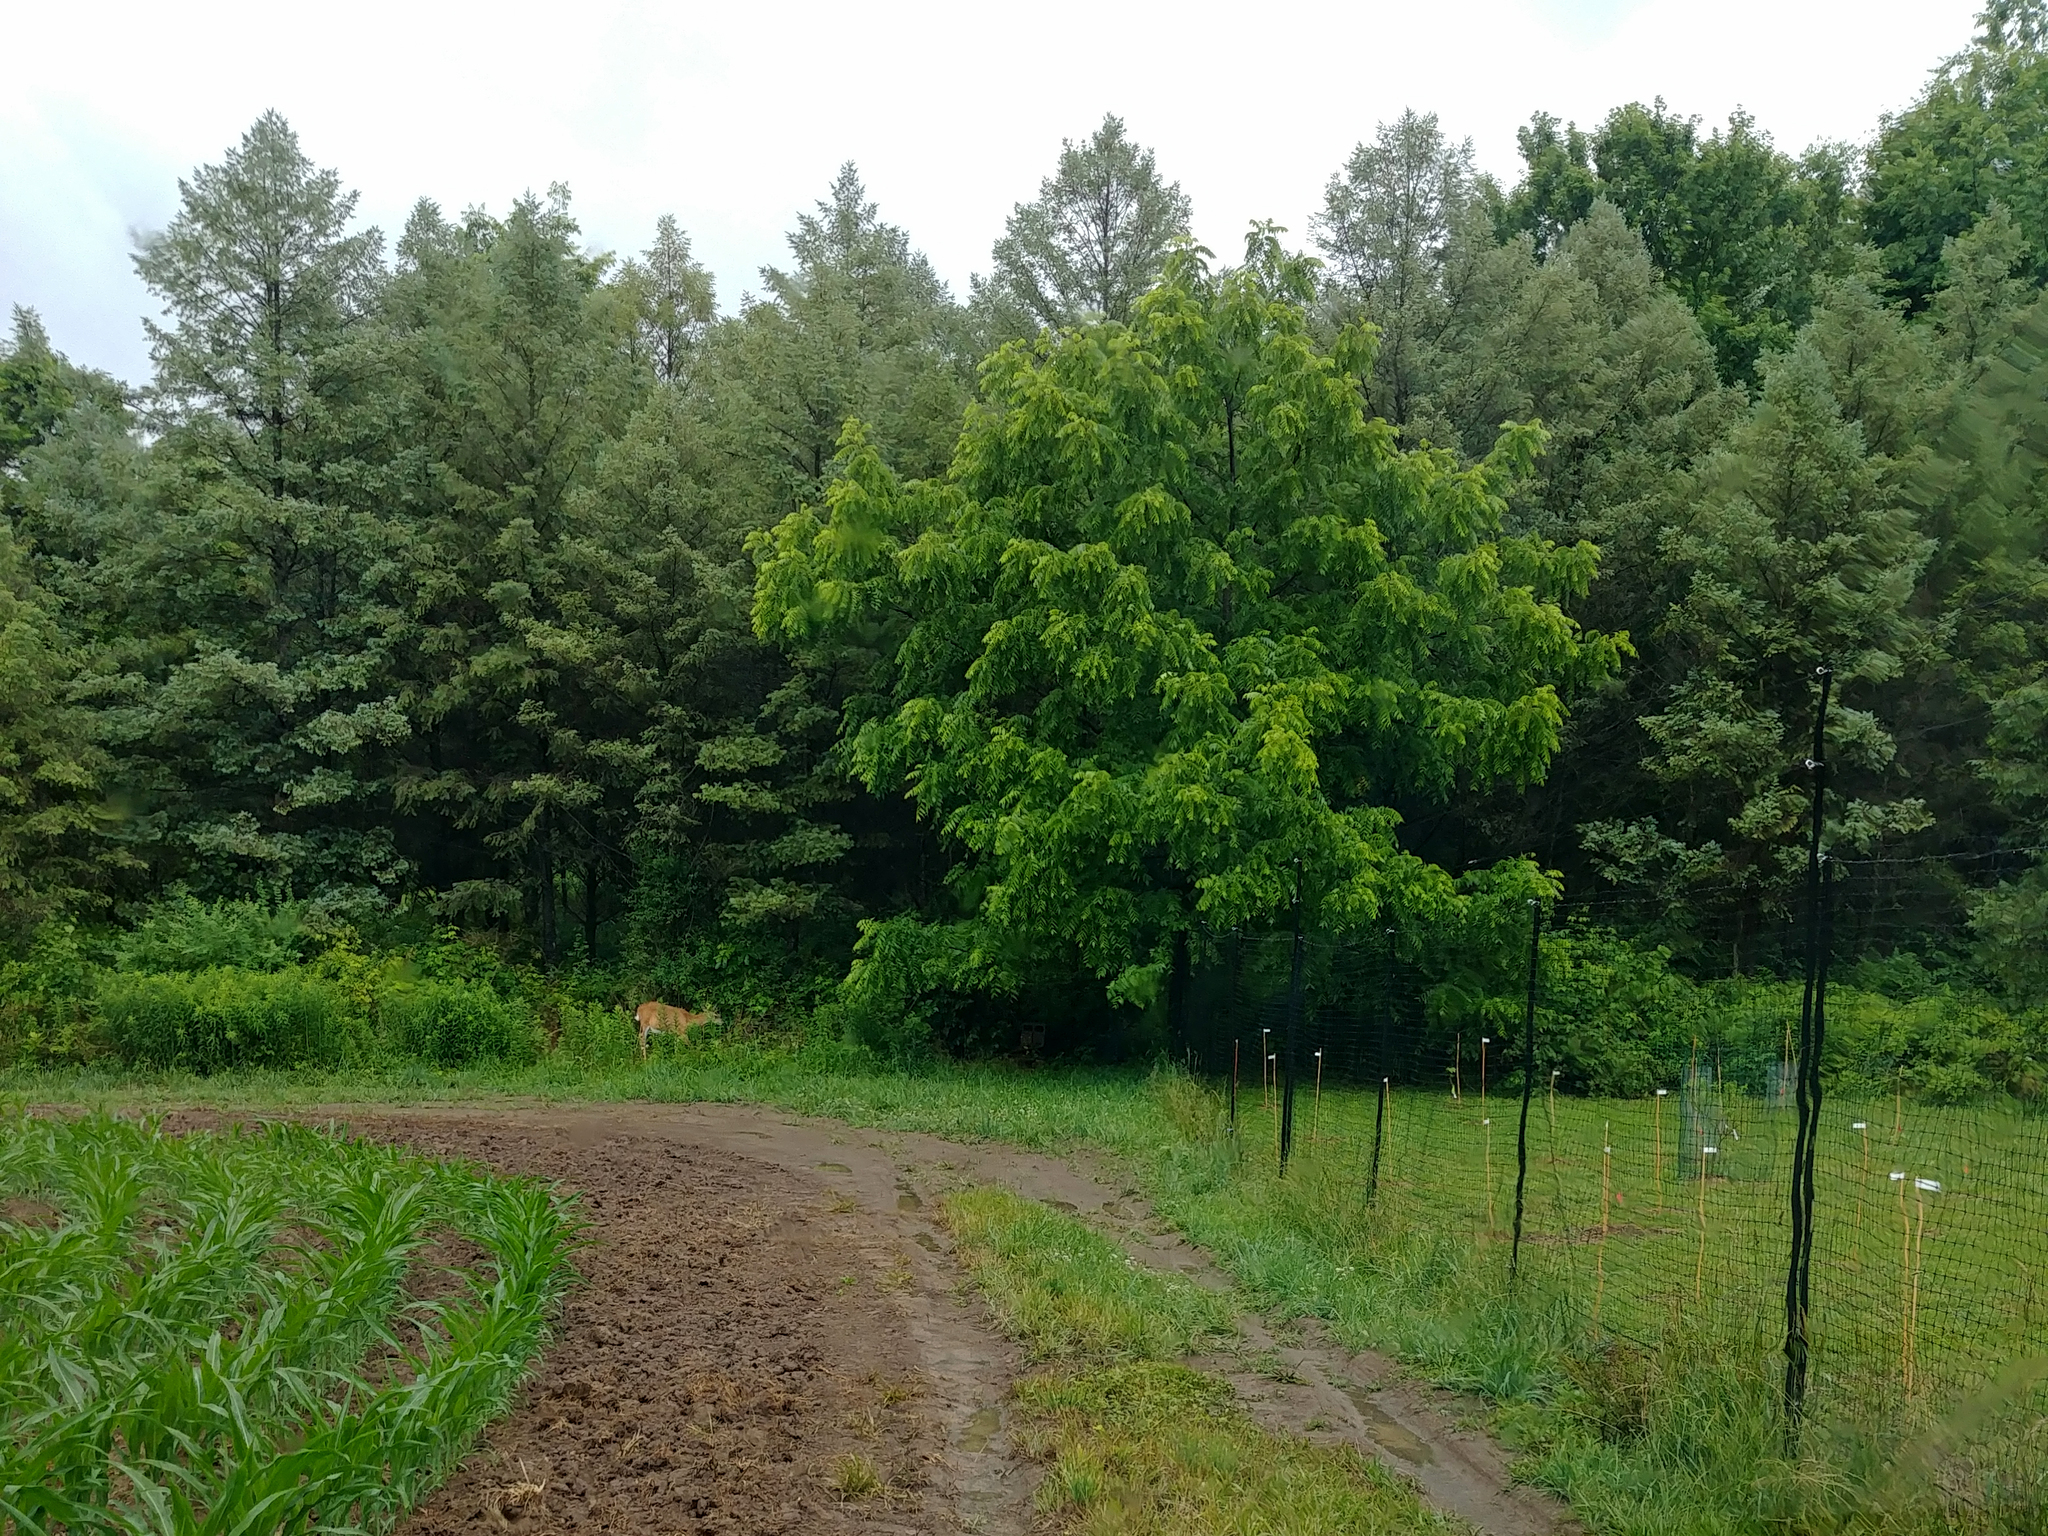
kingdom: Animalia
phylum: Chordata
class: Mammalia
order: Artiodactyla
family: Cervidae
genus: Odocoileus
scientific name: Odocoileus virginianus
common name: White-tailed deer
